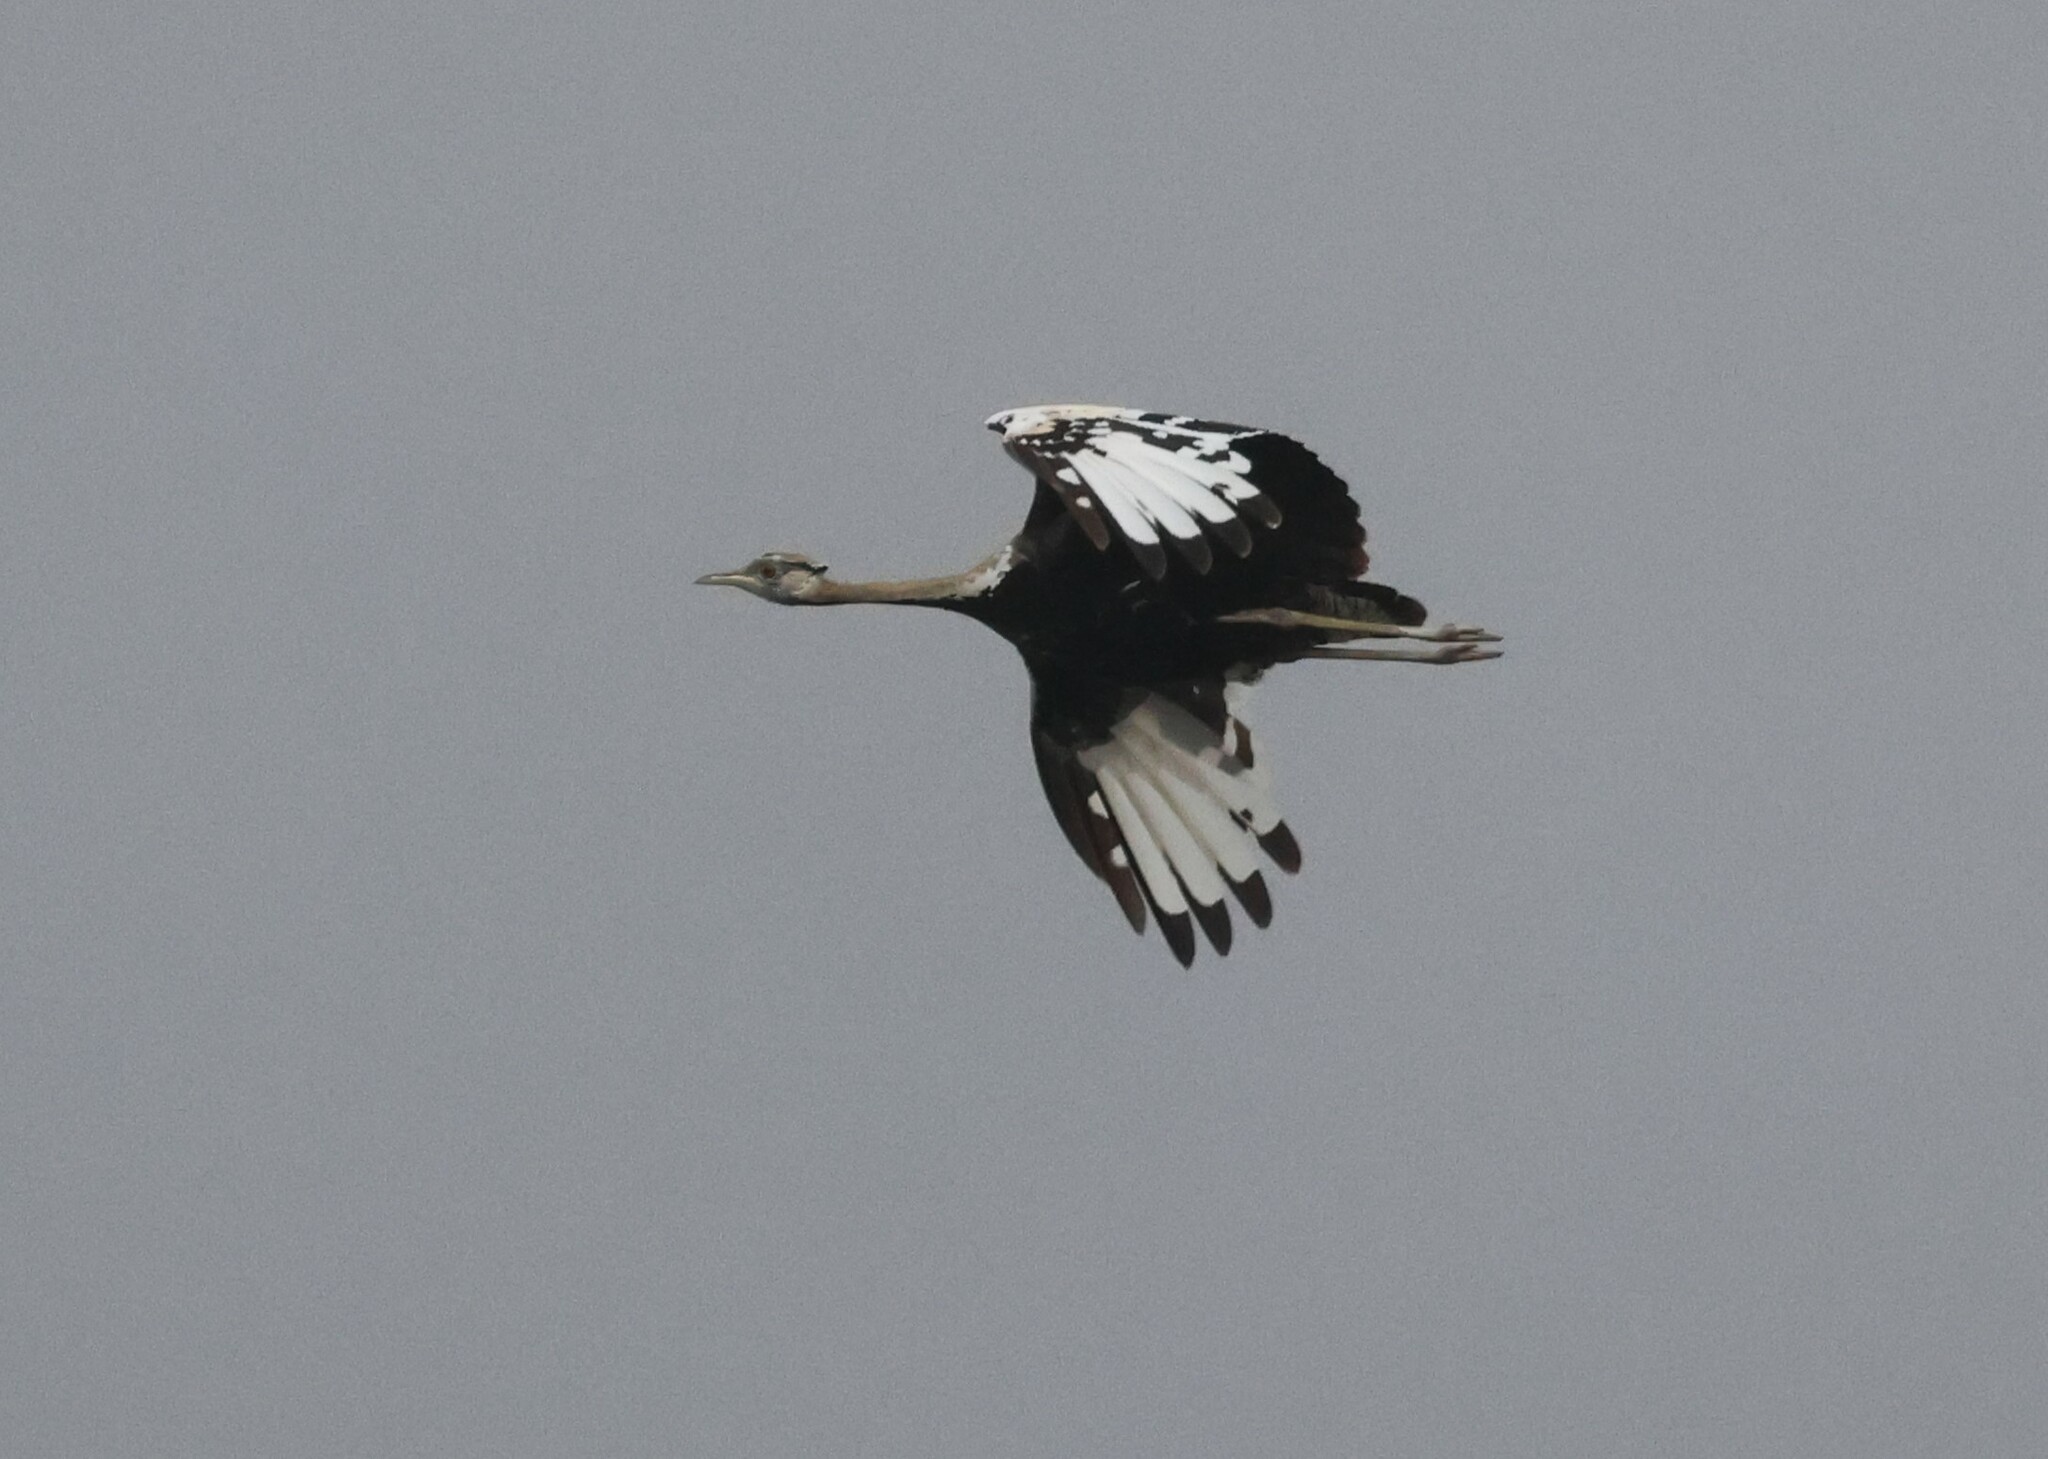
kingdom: Animalia
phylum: Chordata
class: Aves
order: Otidiformes
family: Otididae
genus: Lissotis
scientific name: Lissotis melanogaster
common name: Black-bellied bustard
